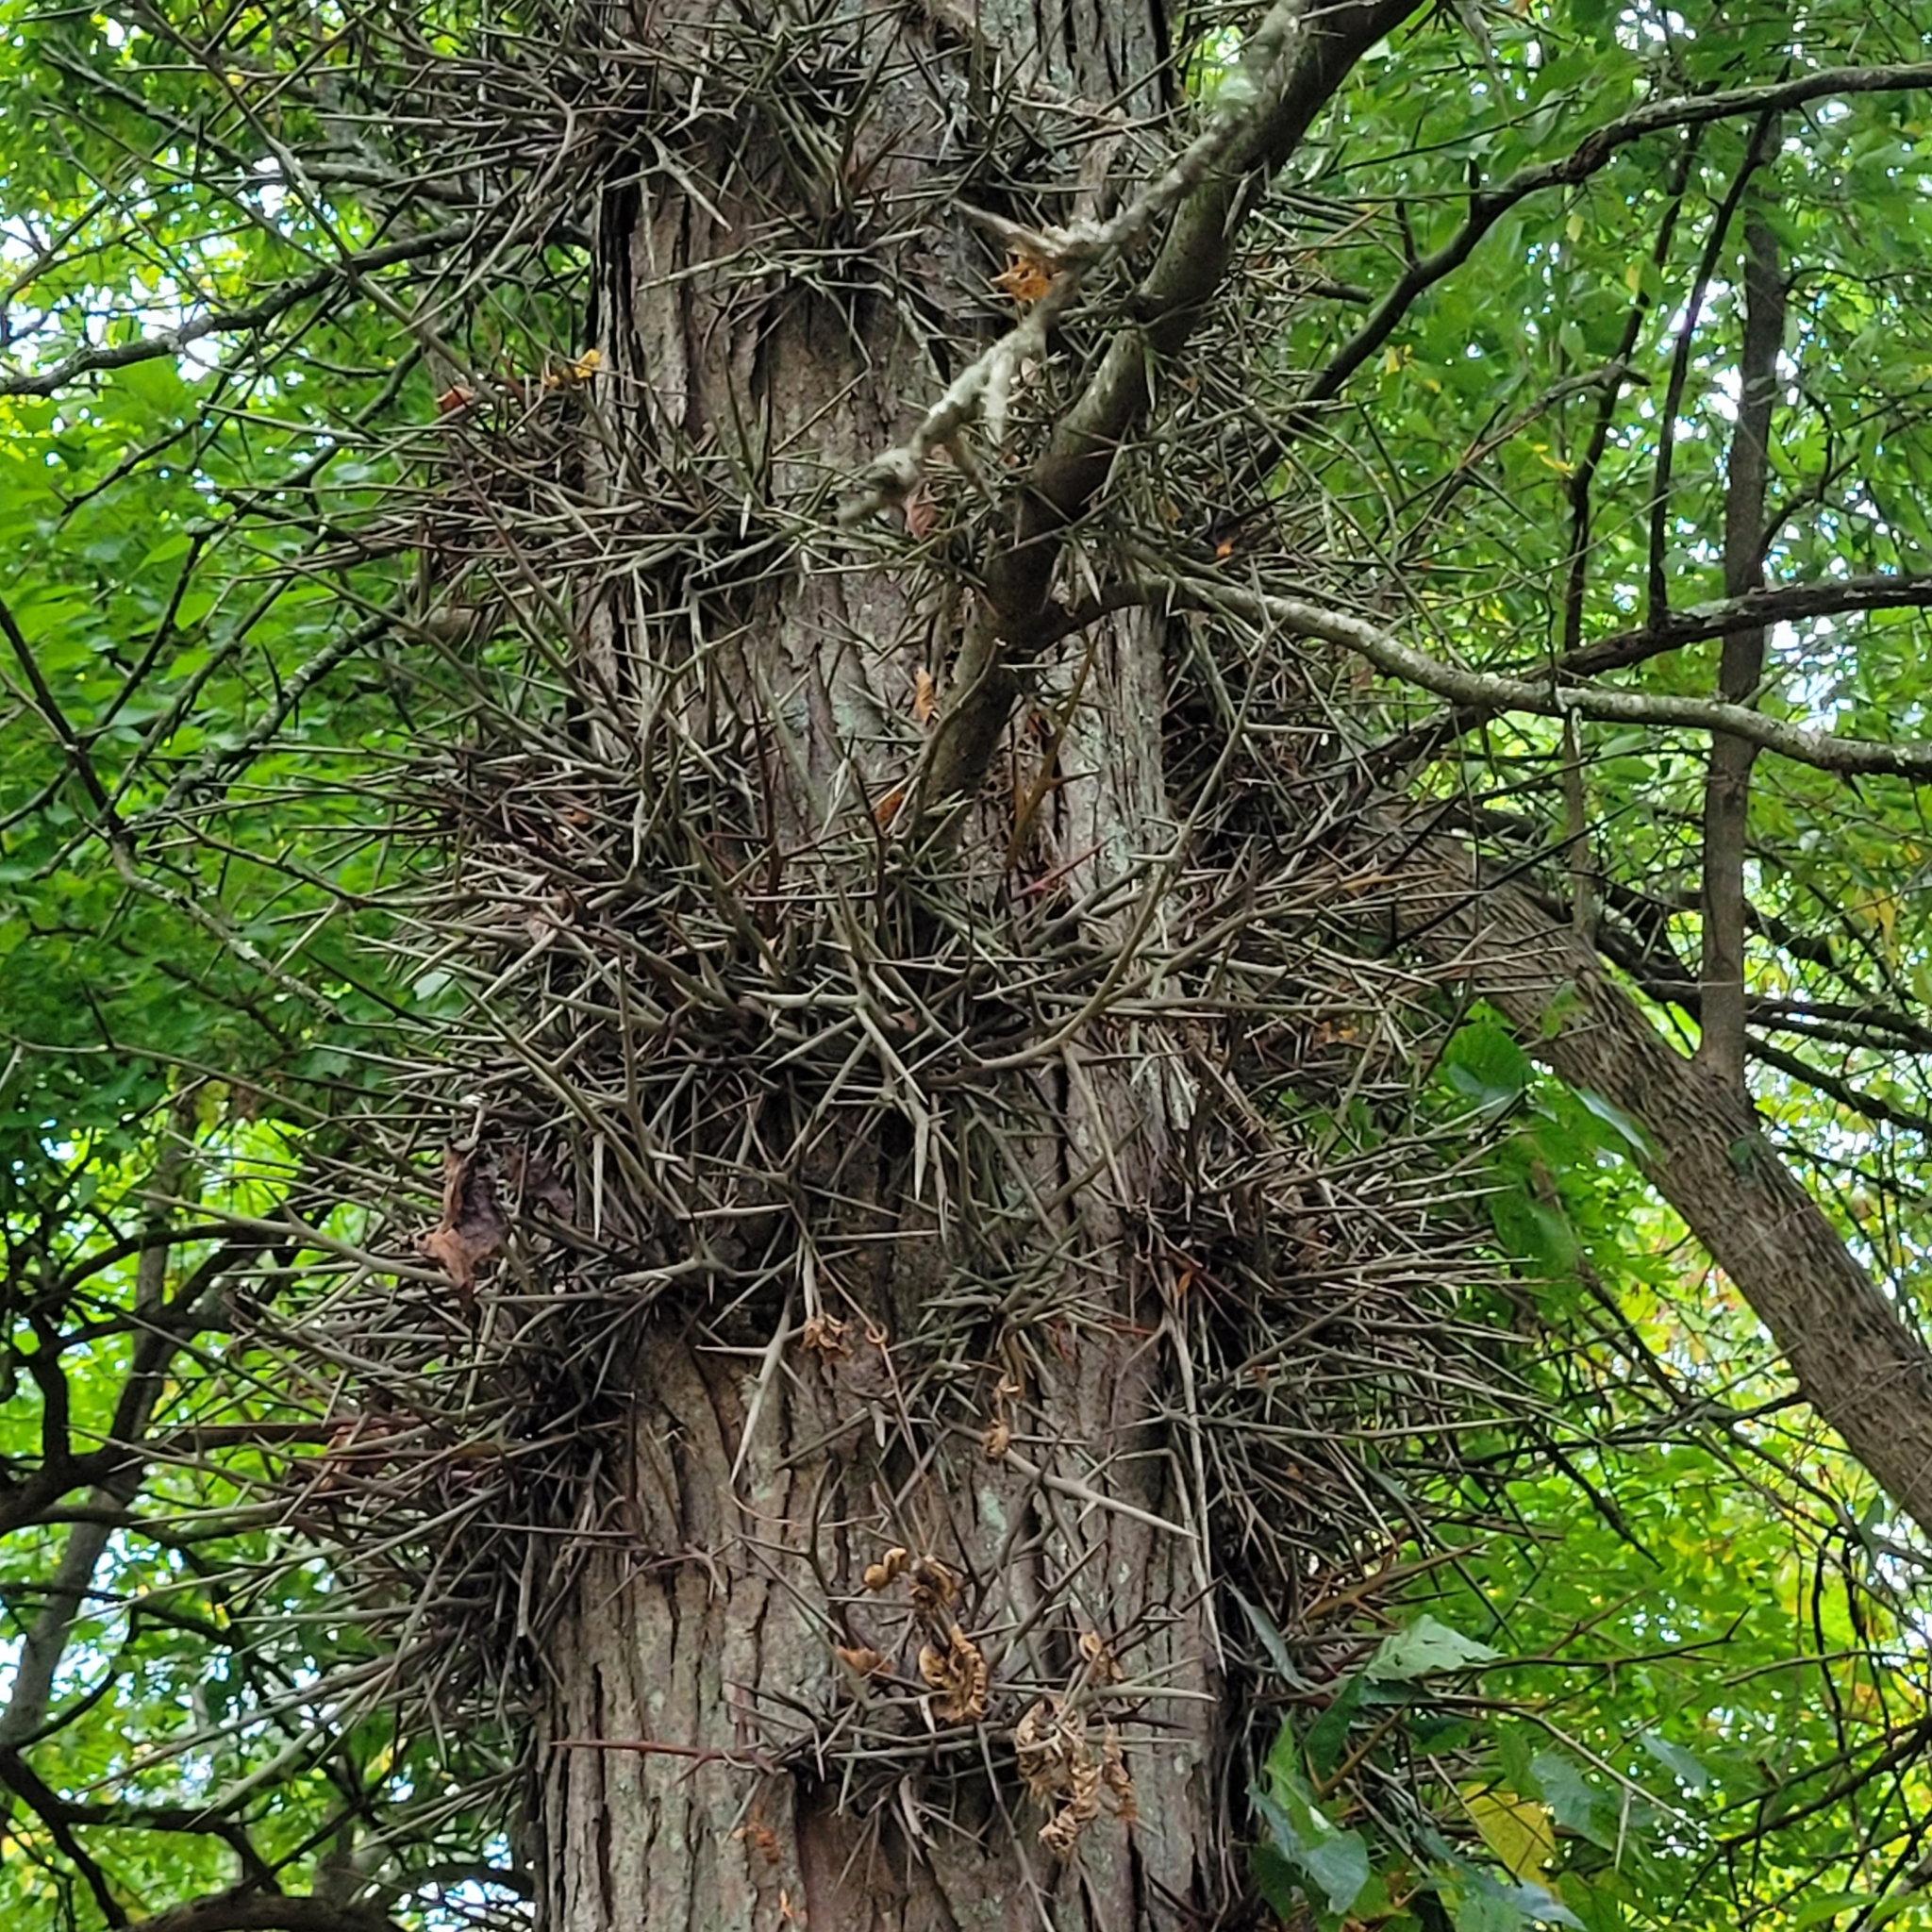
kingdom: Plantae
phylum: Tracheophyta
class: Magnoliopsida
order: Fabales
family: Fabaceae
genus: Gleditsia
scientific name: Gleditsia triacanthos
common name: Common honeylocust
